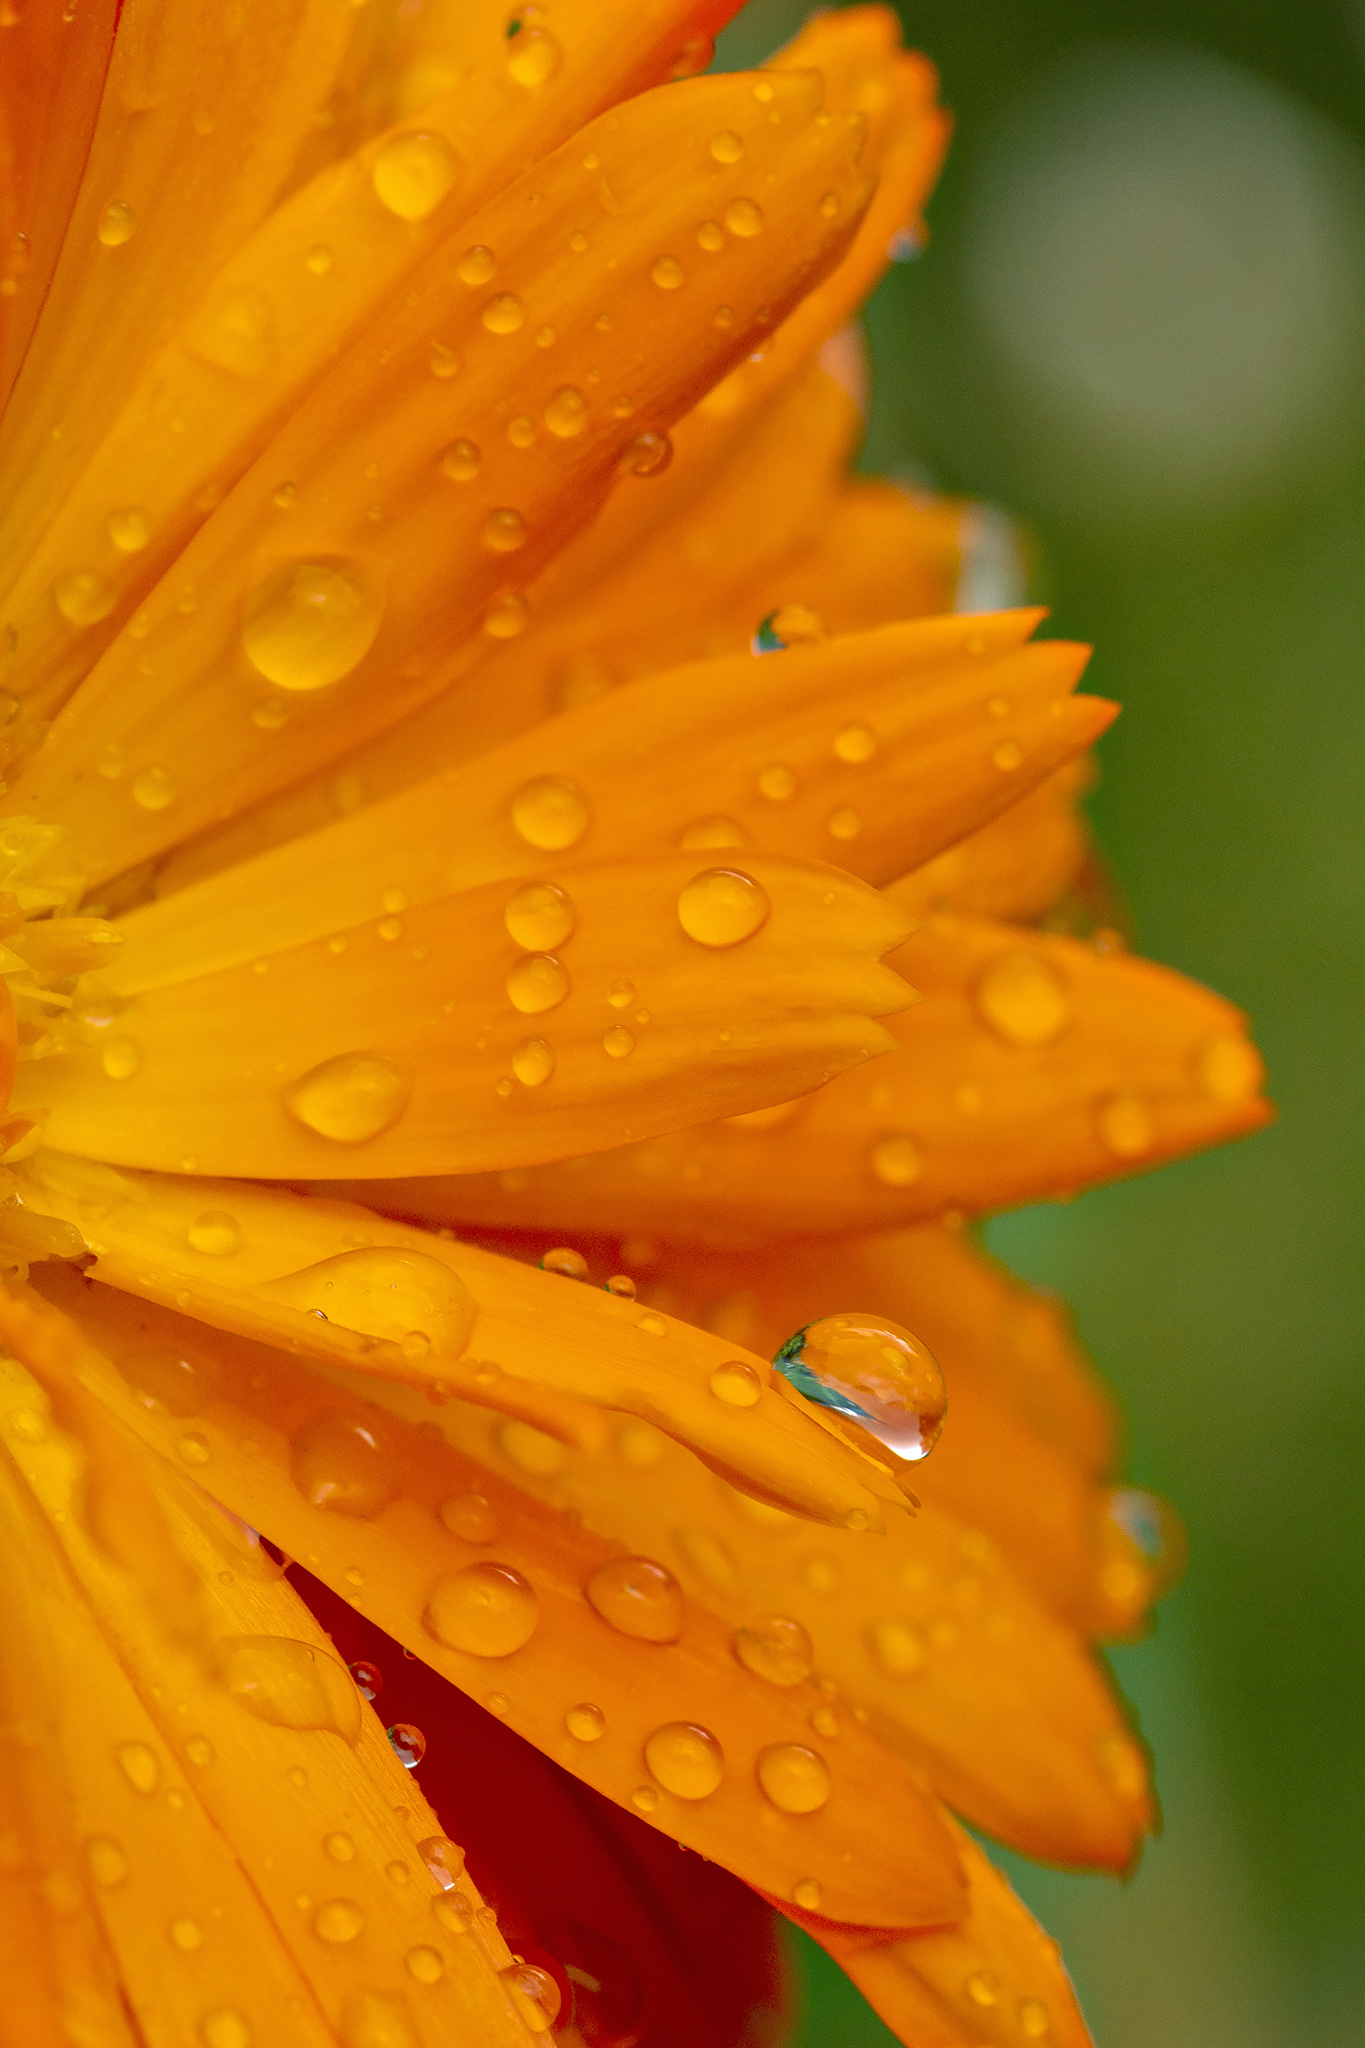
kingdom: Plantae
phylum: Tracheophyta
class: Magnoliopsida
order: Asterales
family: Asteraceae
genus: Calendula
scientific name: Calendula officinalis
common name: Pot marigold
